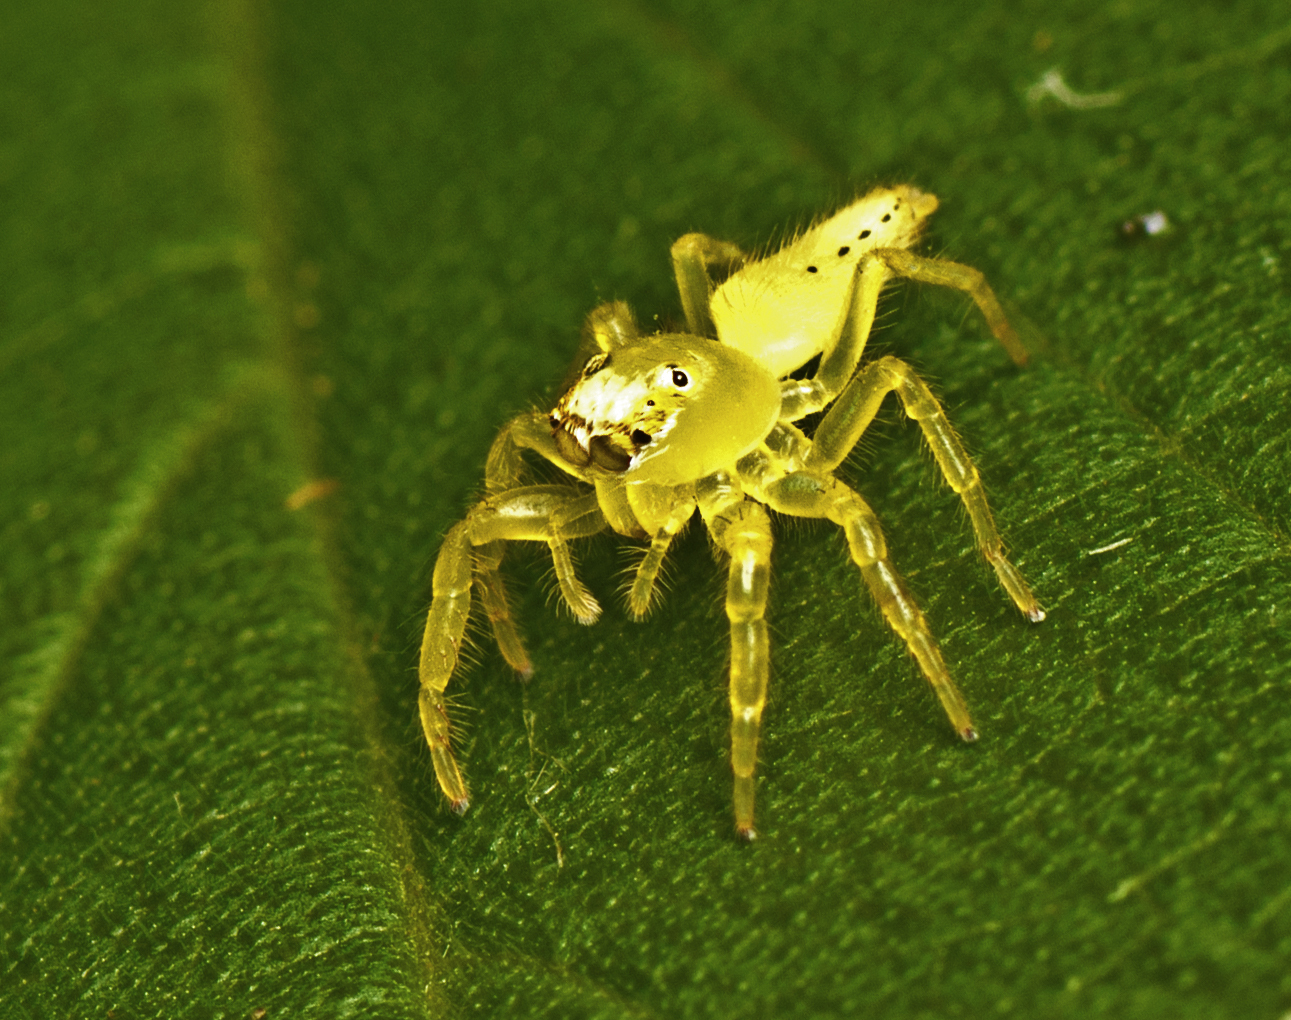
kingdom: Animalia
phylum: Arthropoda
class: Arachnida
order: Araneae
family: Salticidae
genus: Mopsus
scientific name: Mopsus mormon
